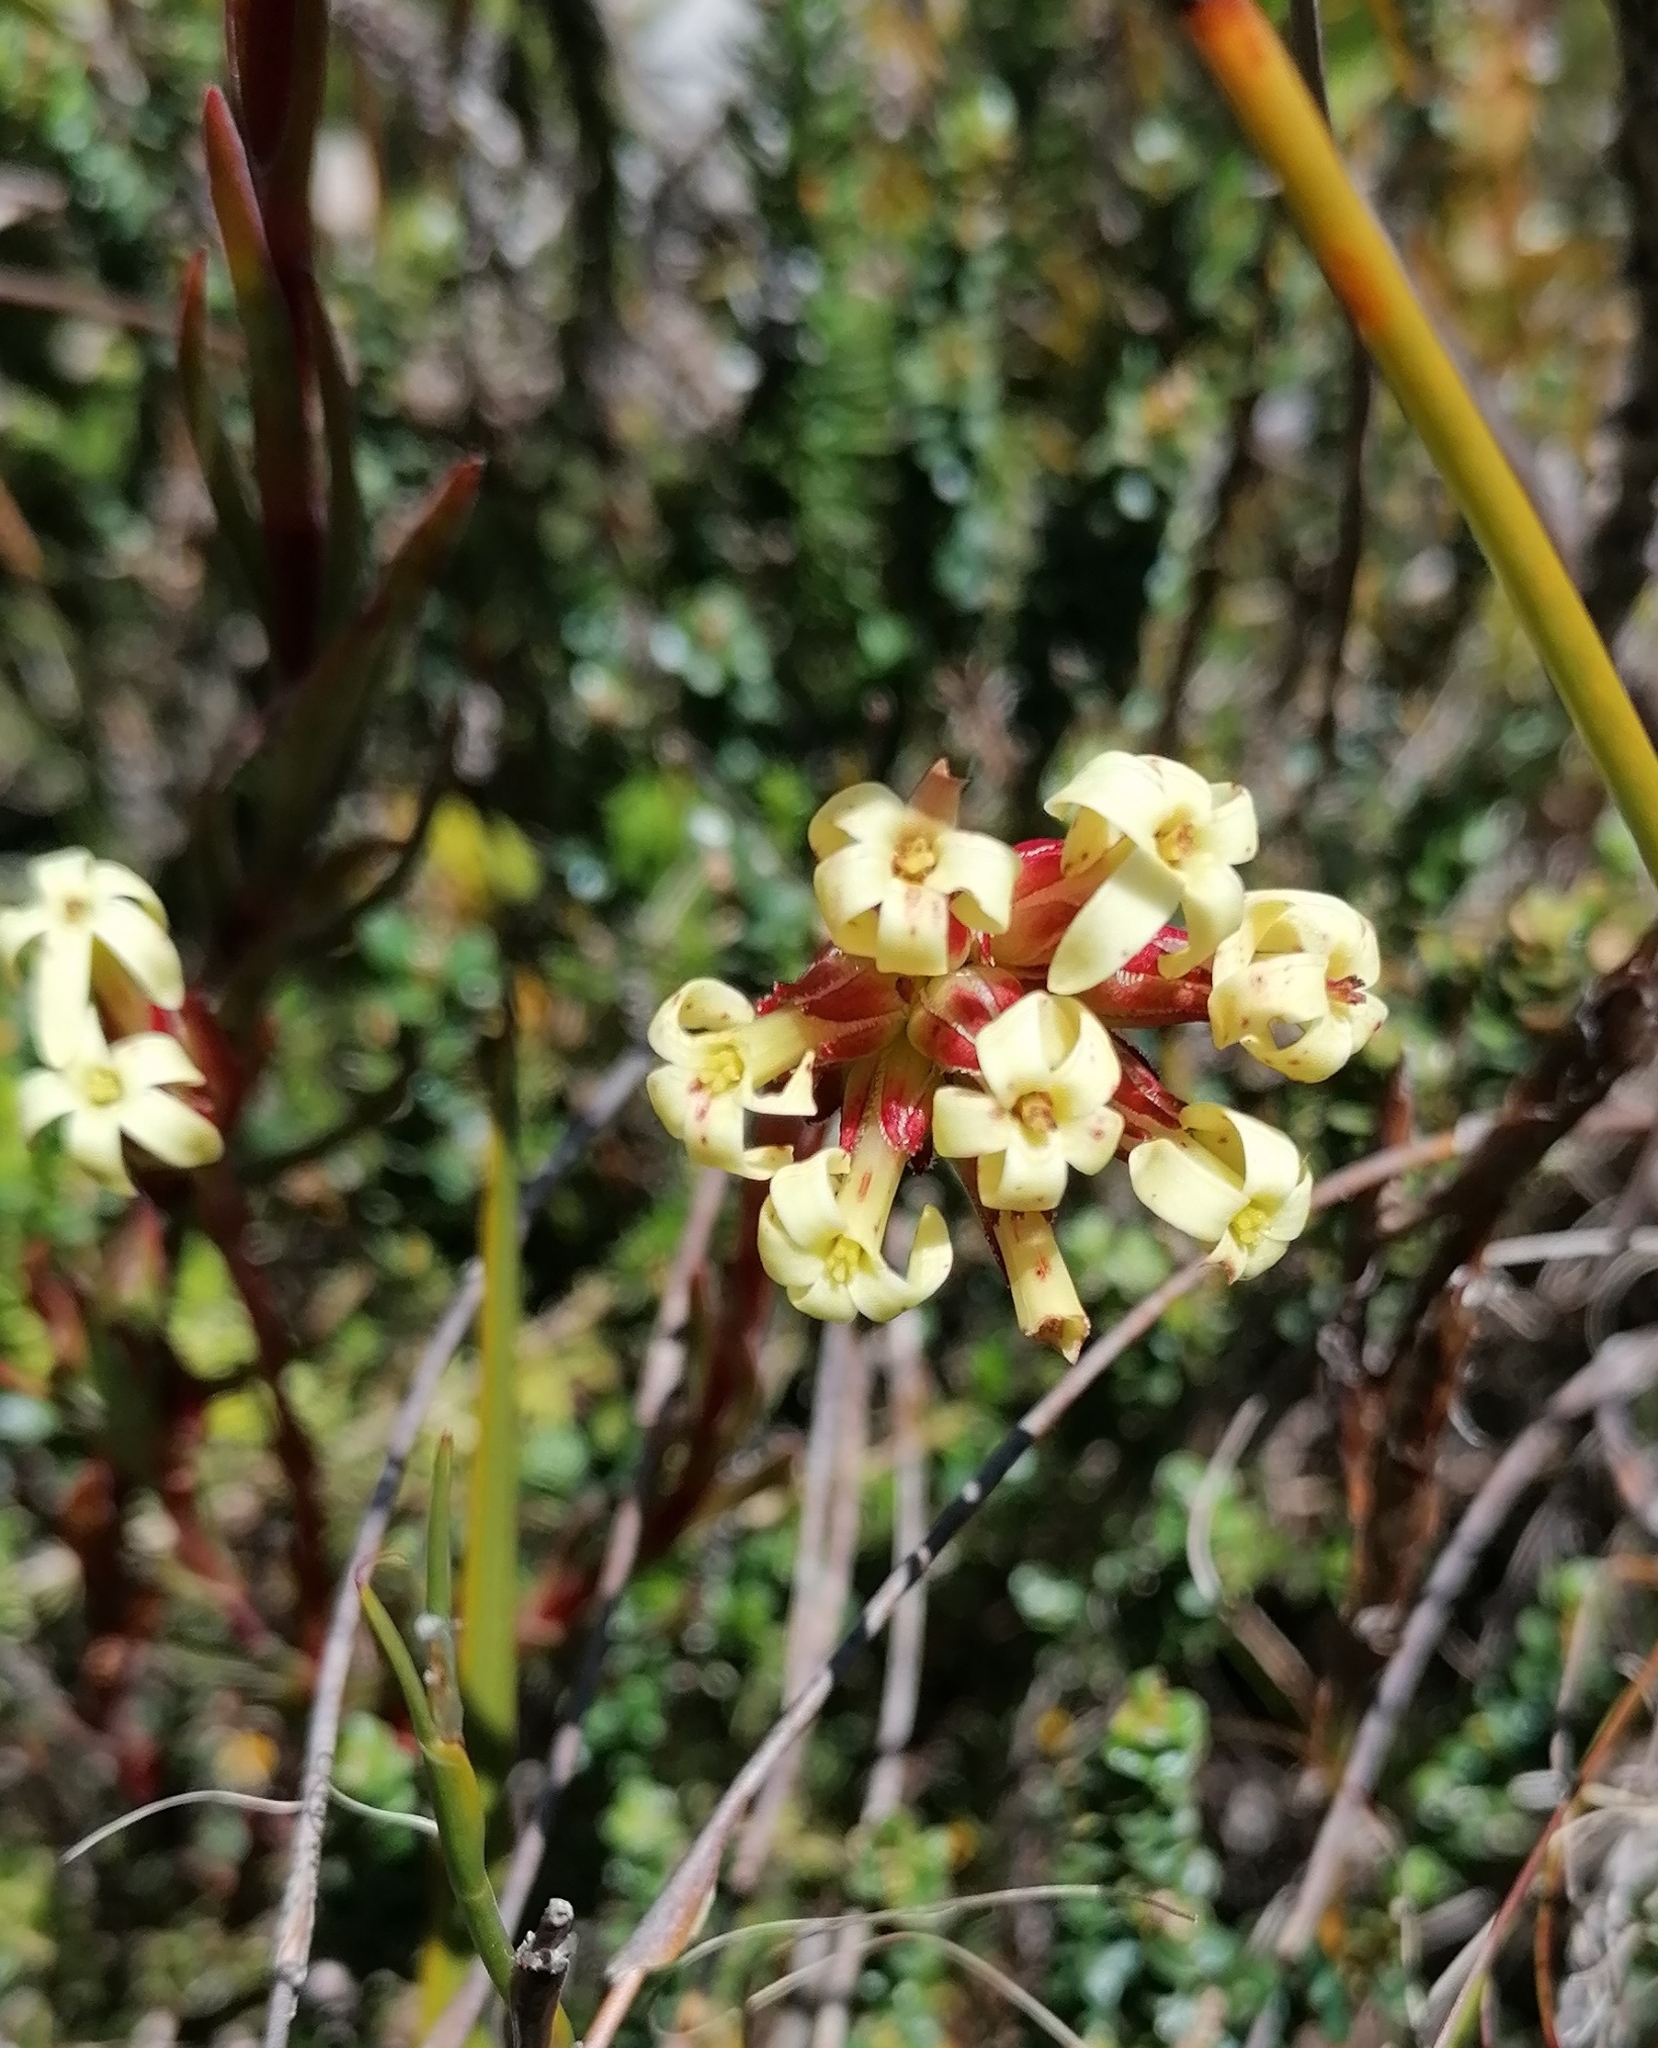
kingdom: Plantae
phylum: Tracheophyta
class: Magnoliopsida
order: Saxifragales
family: Crassulaceae
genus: Crassula
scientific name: Crassula fascicularis
